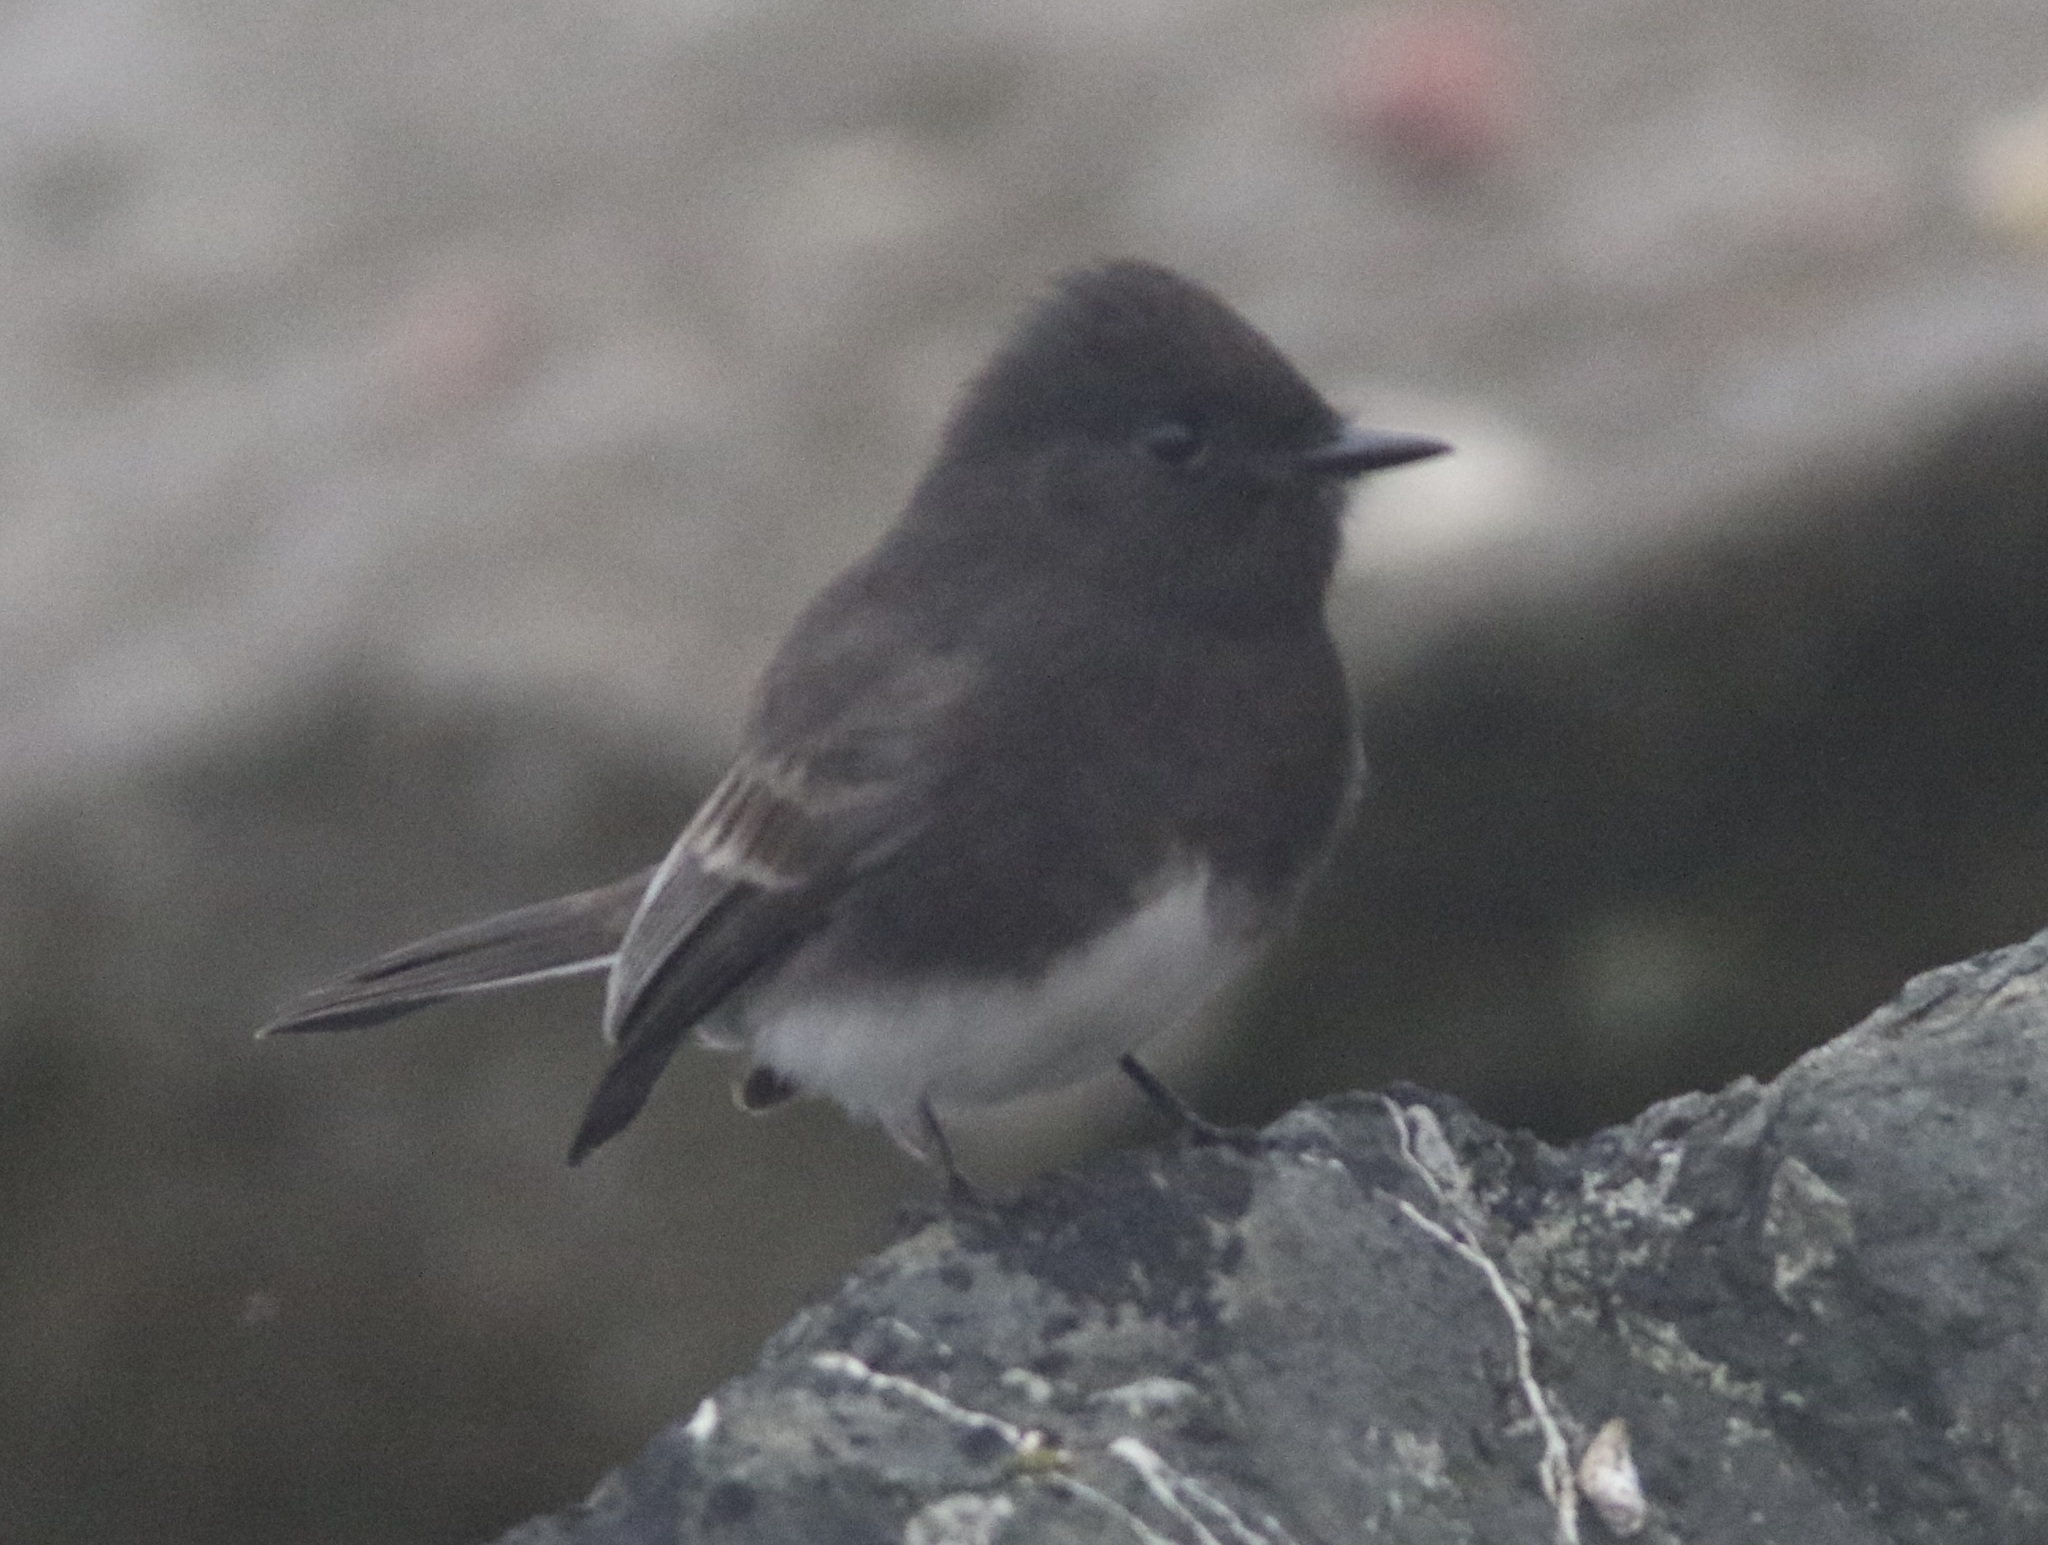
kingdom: Animalia
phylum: Chordata
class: Aves
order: Passeriformes
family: Tyrannidae
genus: Sayornis
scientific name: Sayornis nigricans
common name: Black phoebe
